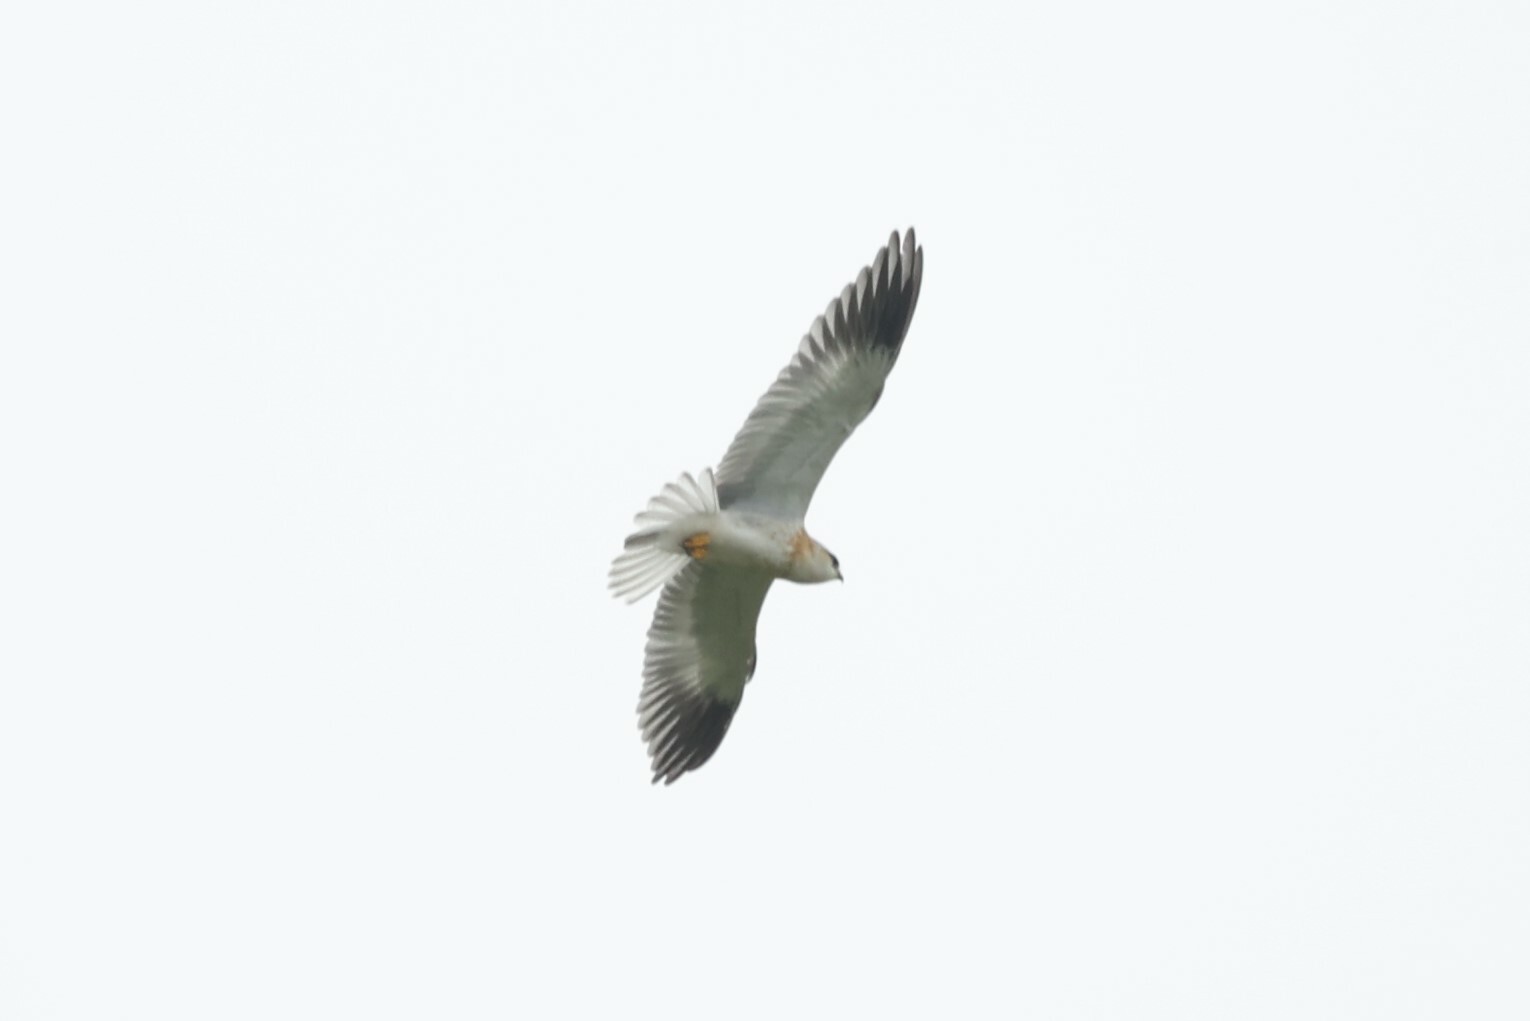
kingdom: Animalia
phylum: Chordata
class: Aves
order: Accipitriformes
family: Accipitridae
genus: Elanus
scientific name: Elanus caeruleus
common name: Black-winged kite
